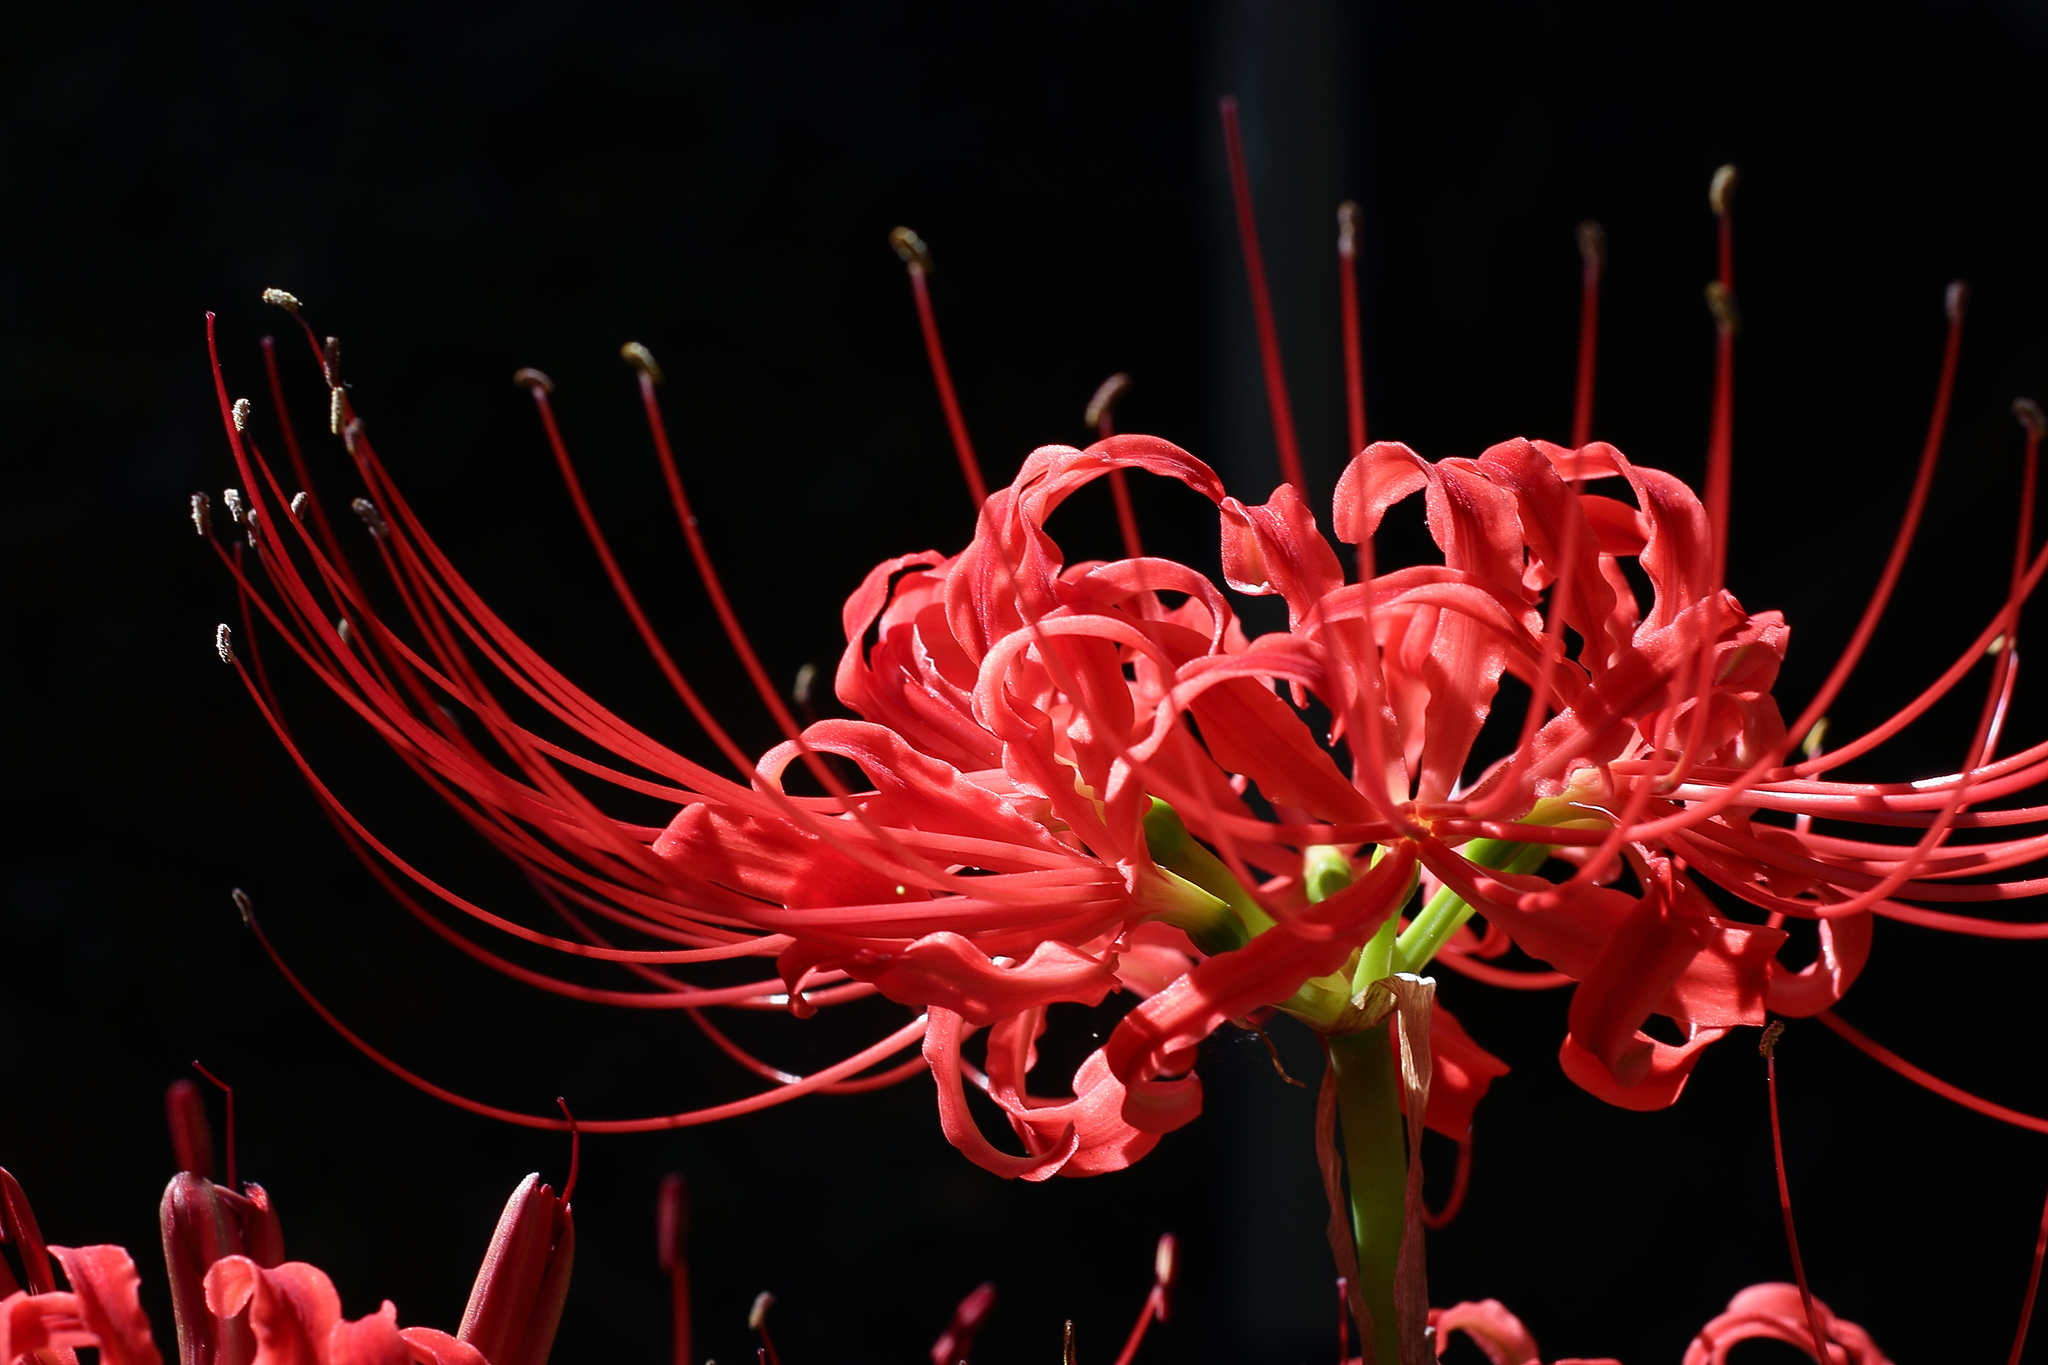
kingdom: Plantae
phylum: Tracheophyta
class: Liliopsida
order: Asparagales
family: Amaryllidaceae
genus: Lycoris
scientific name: Lycoris radiata
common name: Red spider lily
